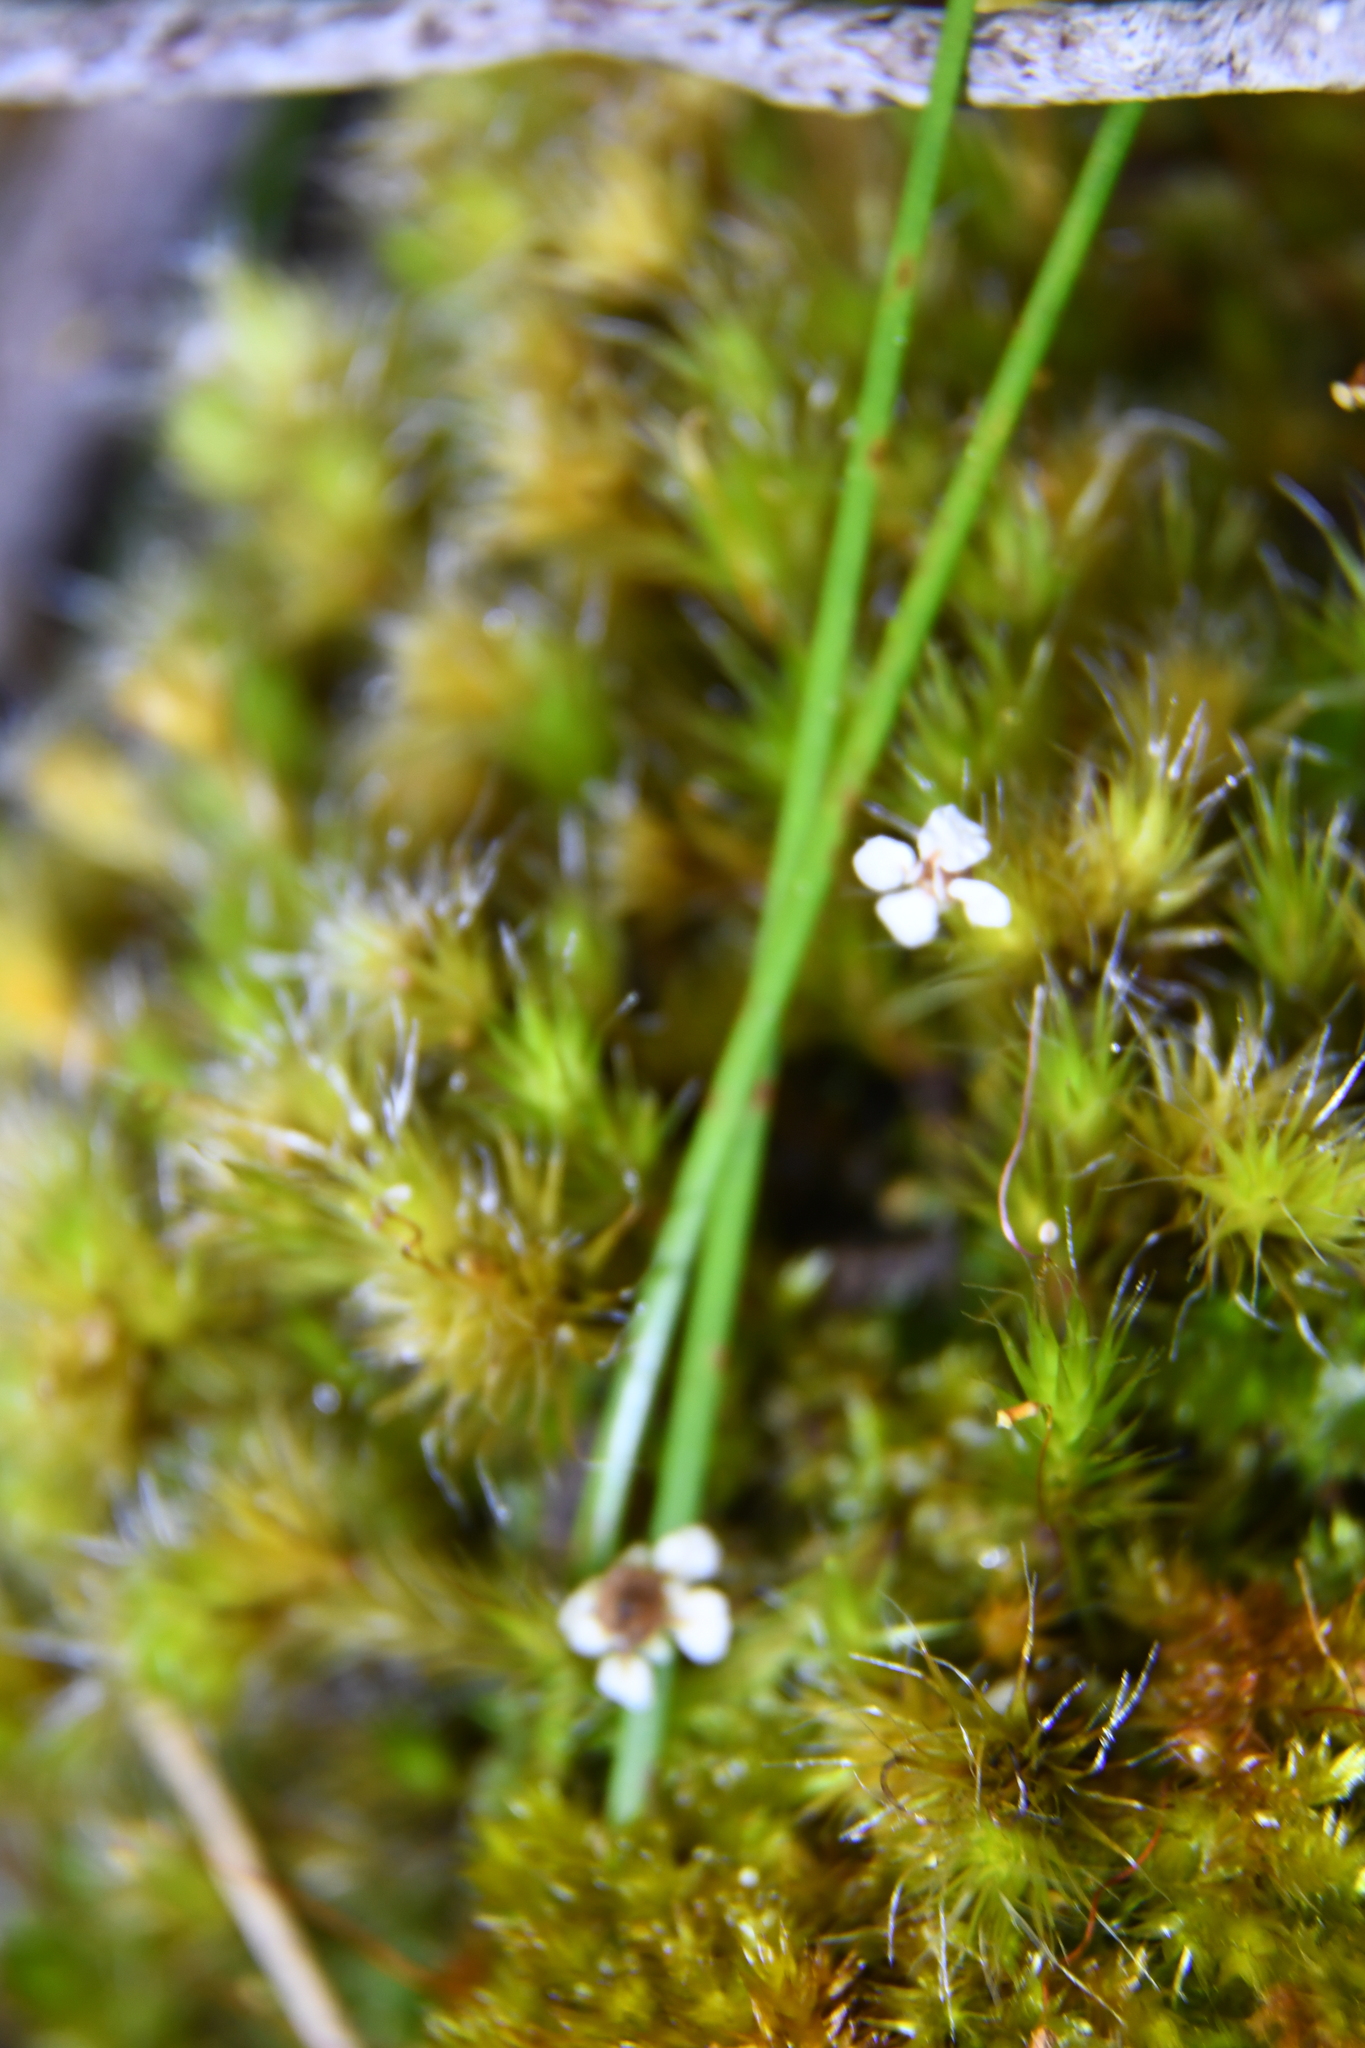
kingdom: Plantae
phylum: Bryophyta
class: Bryopsida
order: Dicranales
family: Leucobryaceae
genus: Campylopus
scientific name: Campylopus introflexus
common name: Heath star moss
